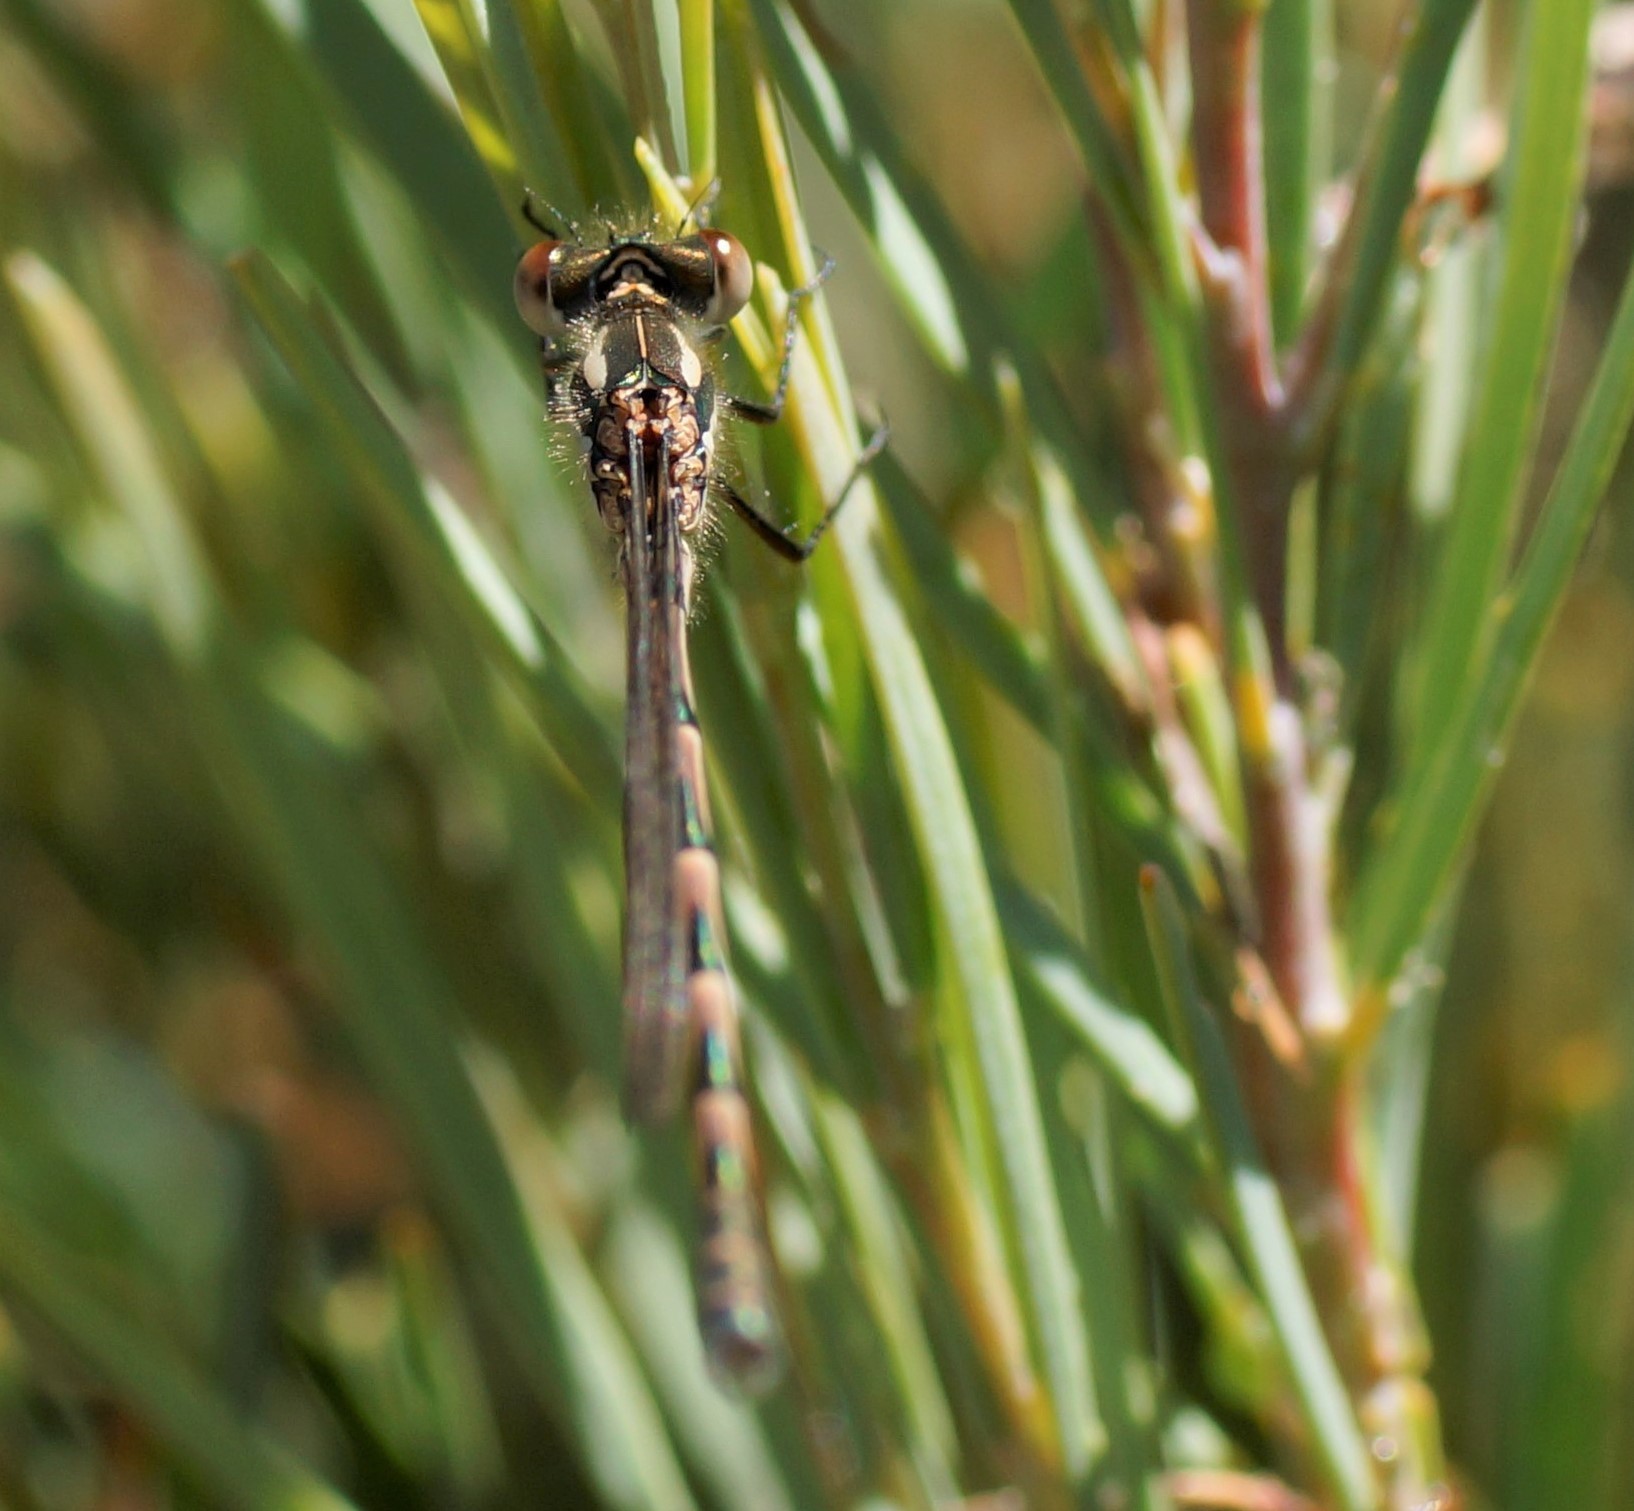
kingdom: Animalia
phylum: Arthropoda
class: Insecta
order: Odonata
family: Lestidae
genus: Austrolestes
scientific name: Austrolestes annulosus
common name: Blue ringtail
